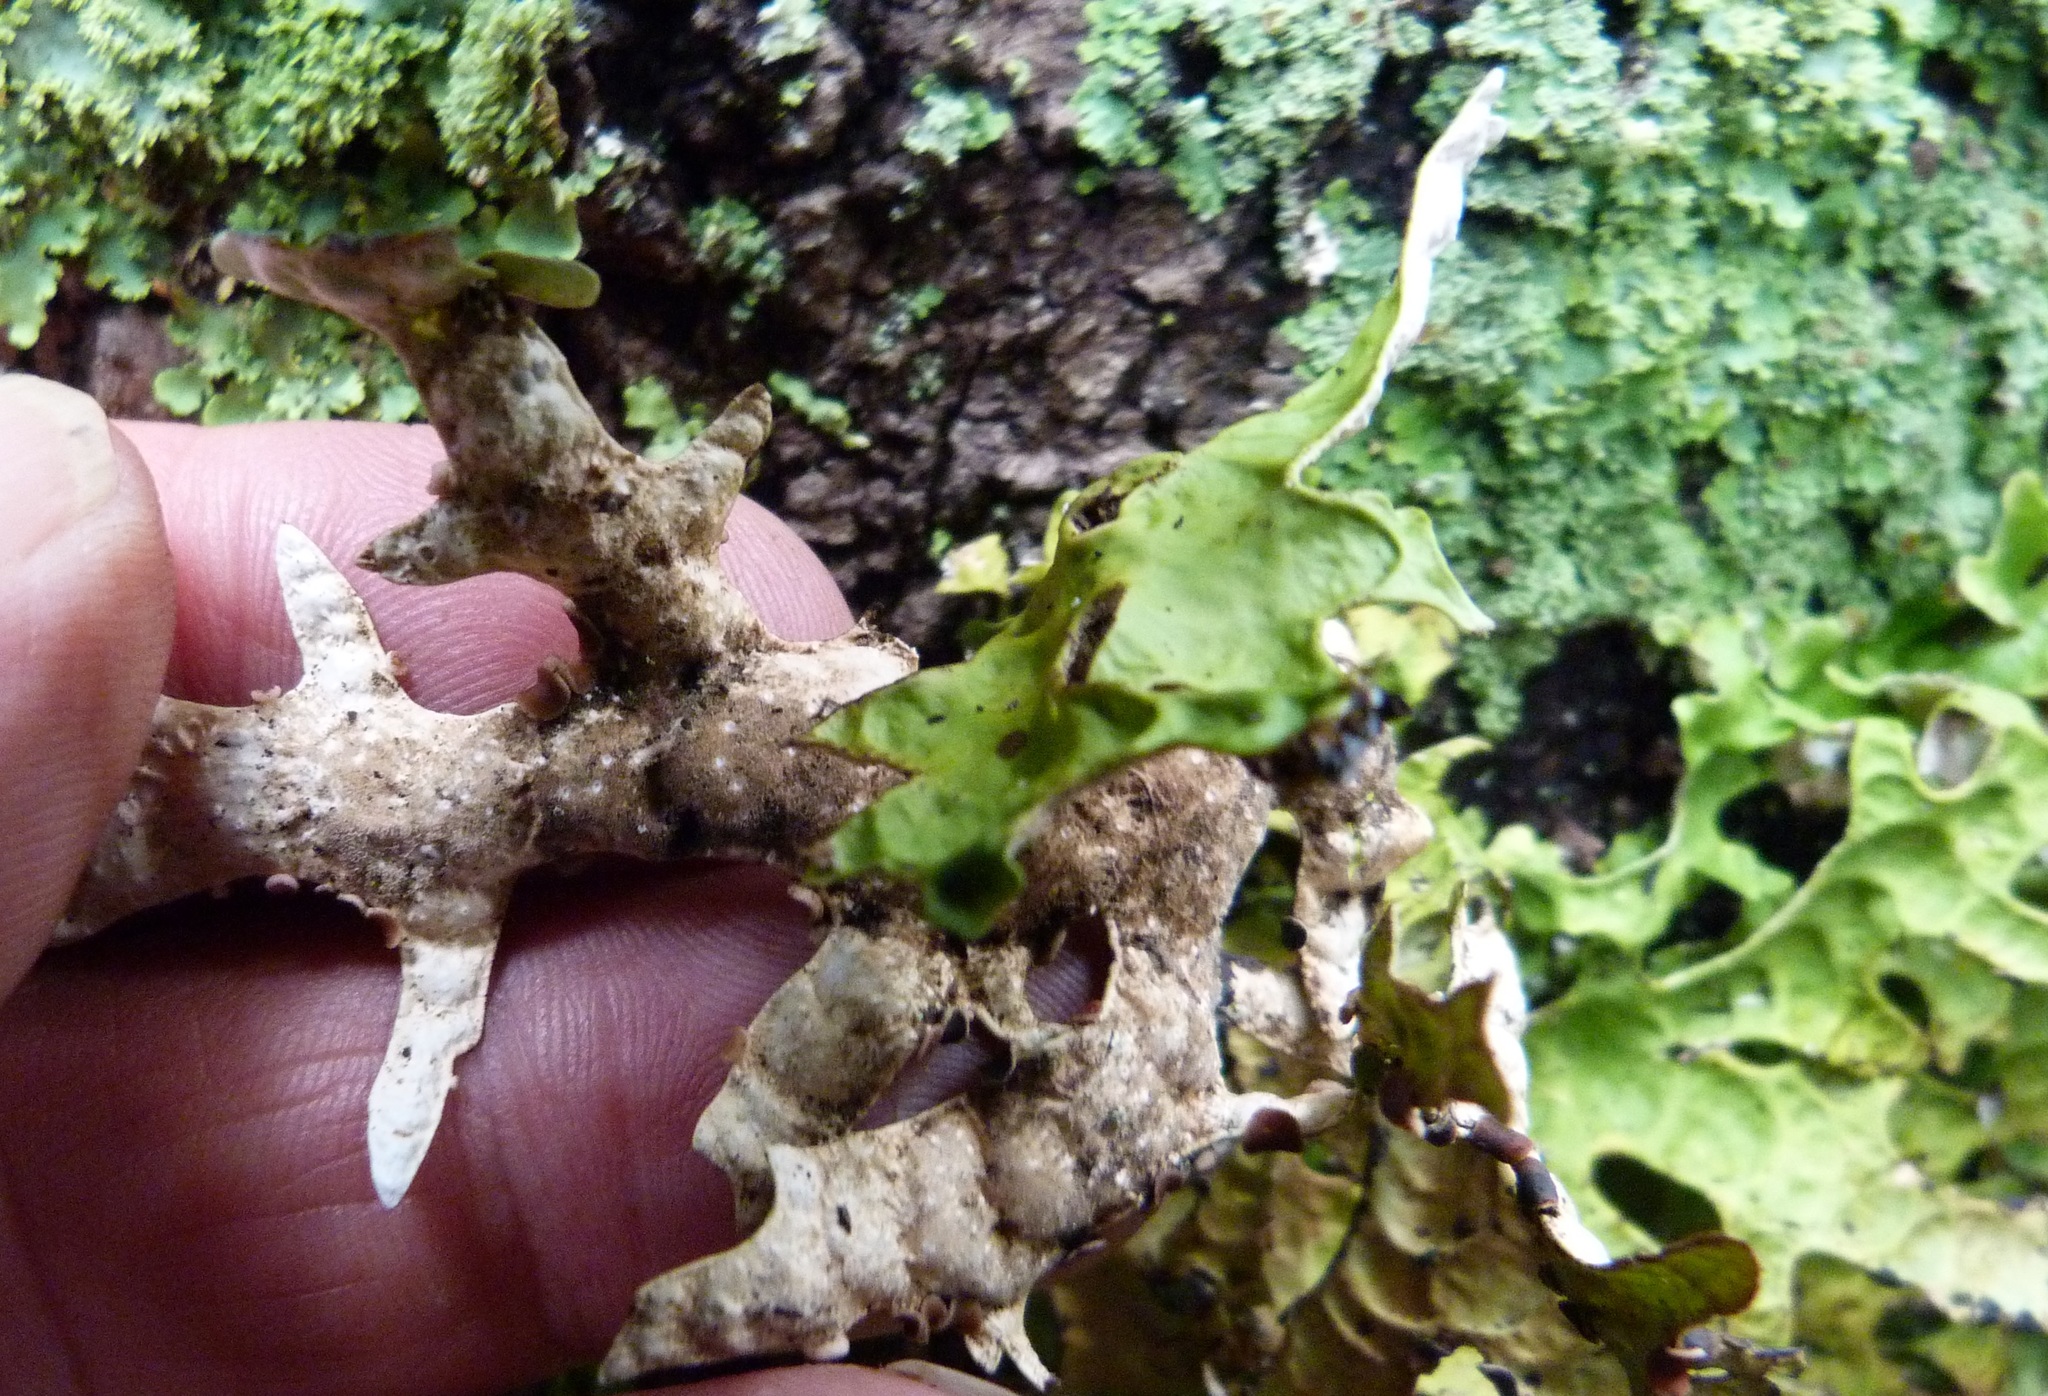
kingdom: Fungi
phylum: Ascomycota
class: Lecanoromycetes
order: Peltigerales
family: Lobariaceae
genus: Pseudocyphellaria
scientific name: Pseudocyphellaria rufovirescens
